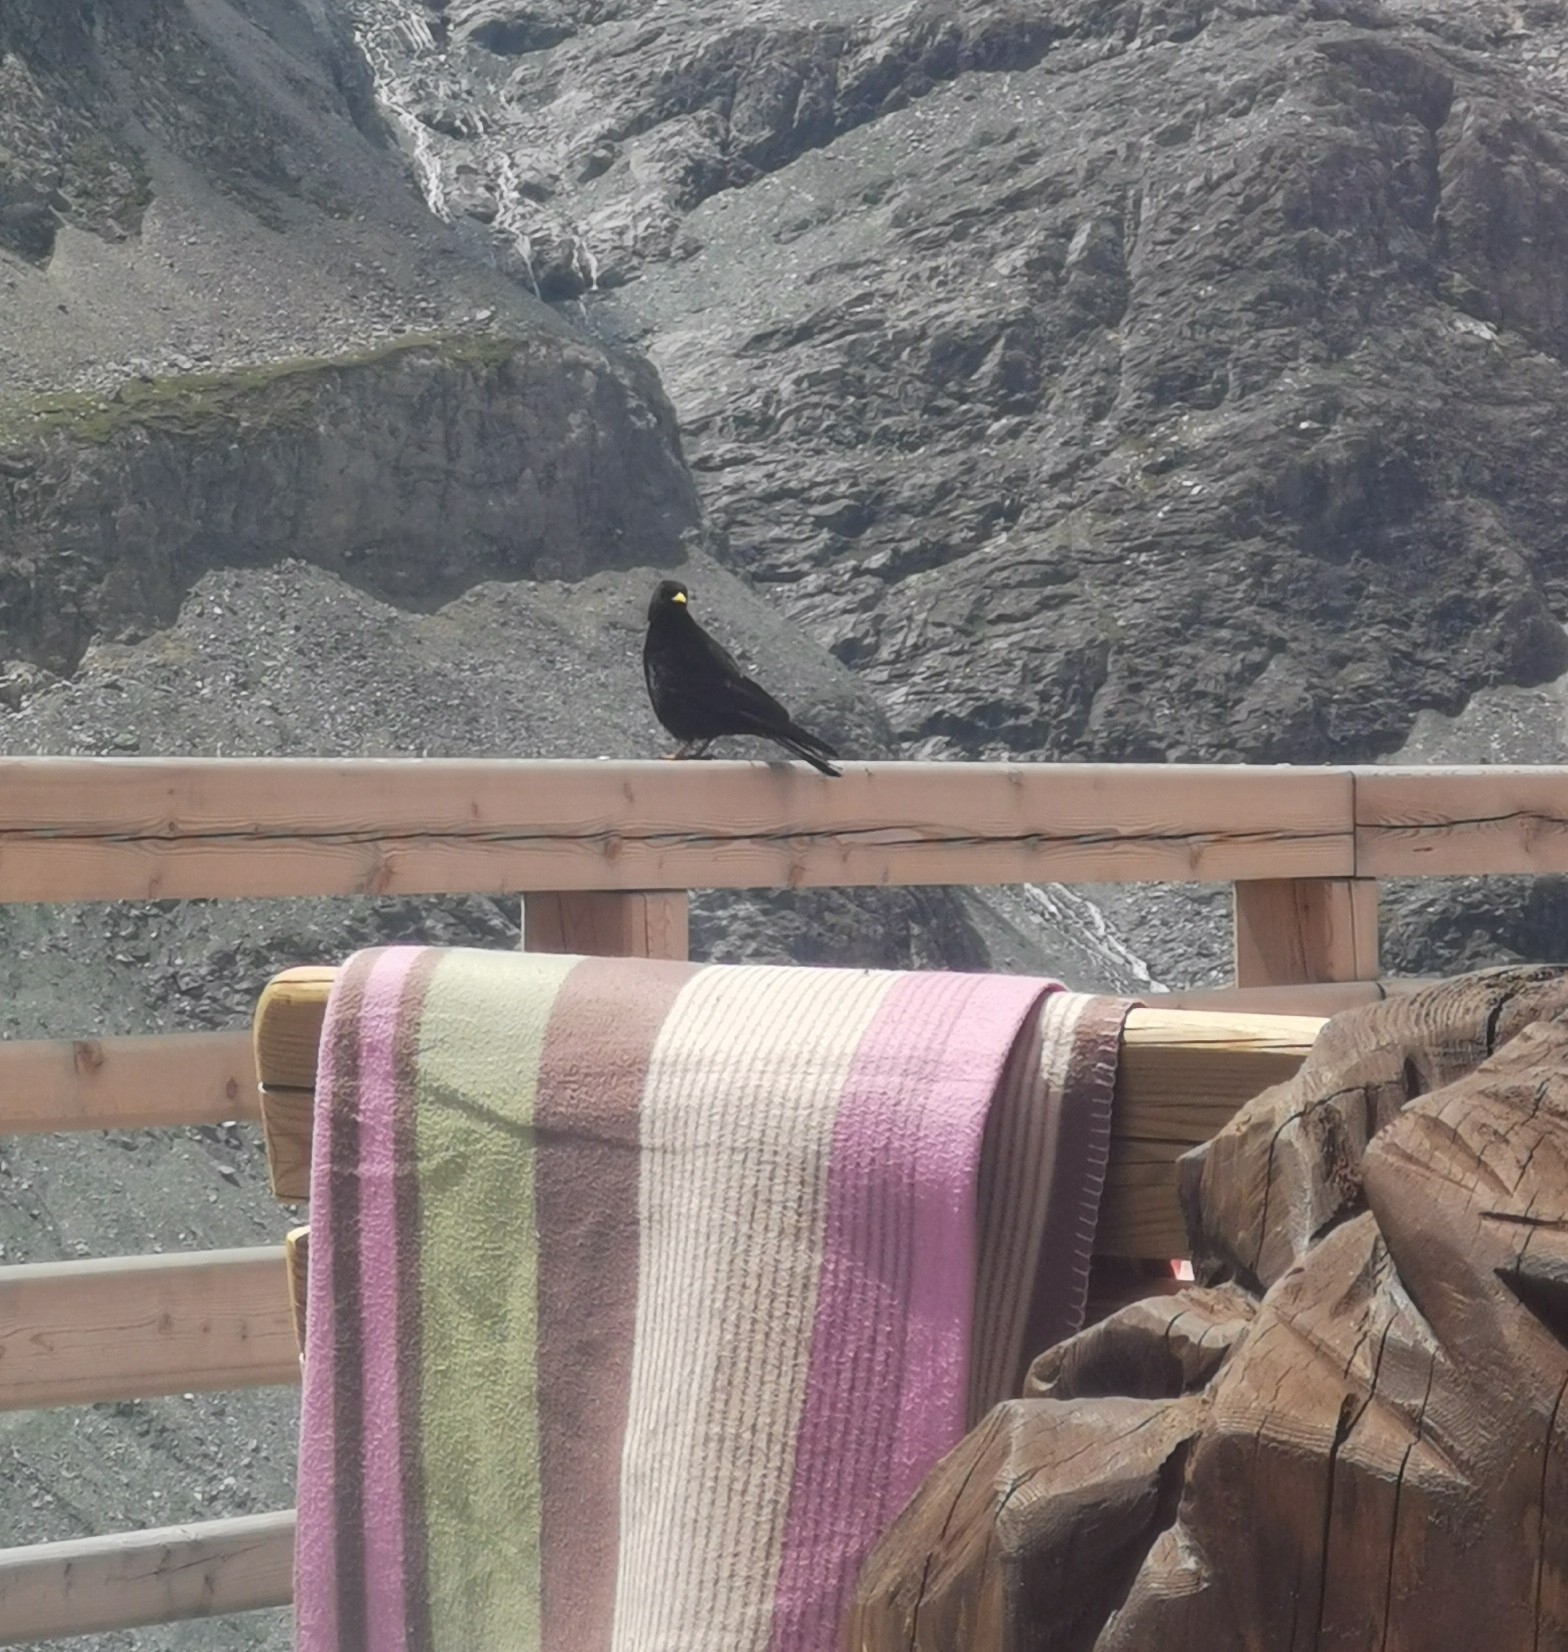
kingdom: Animalia
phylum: Chordata
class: Aves
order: Passeriformes
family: Corvidae
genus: Pyrrhocorax
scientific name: Pyrrhocorax graculus
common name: Alpine chough
